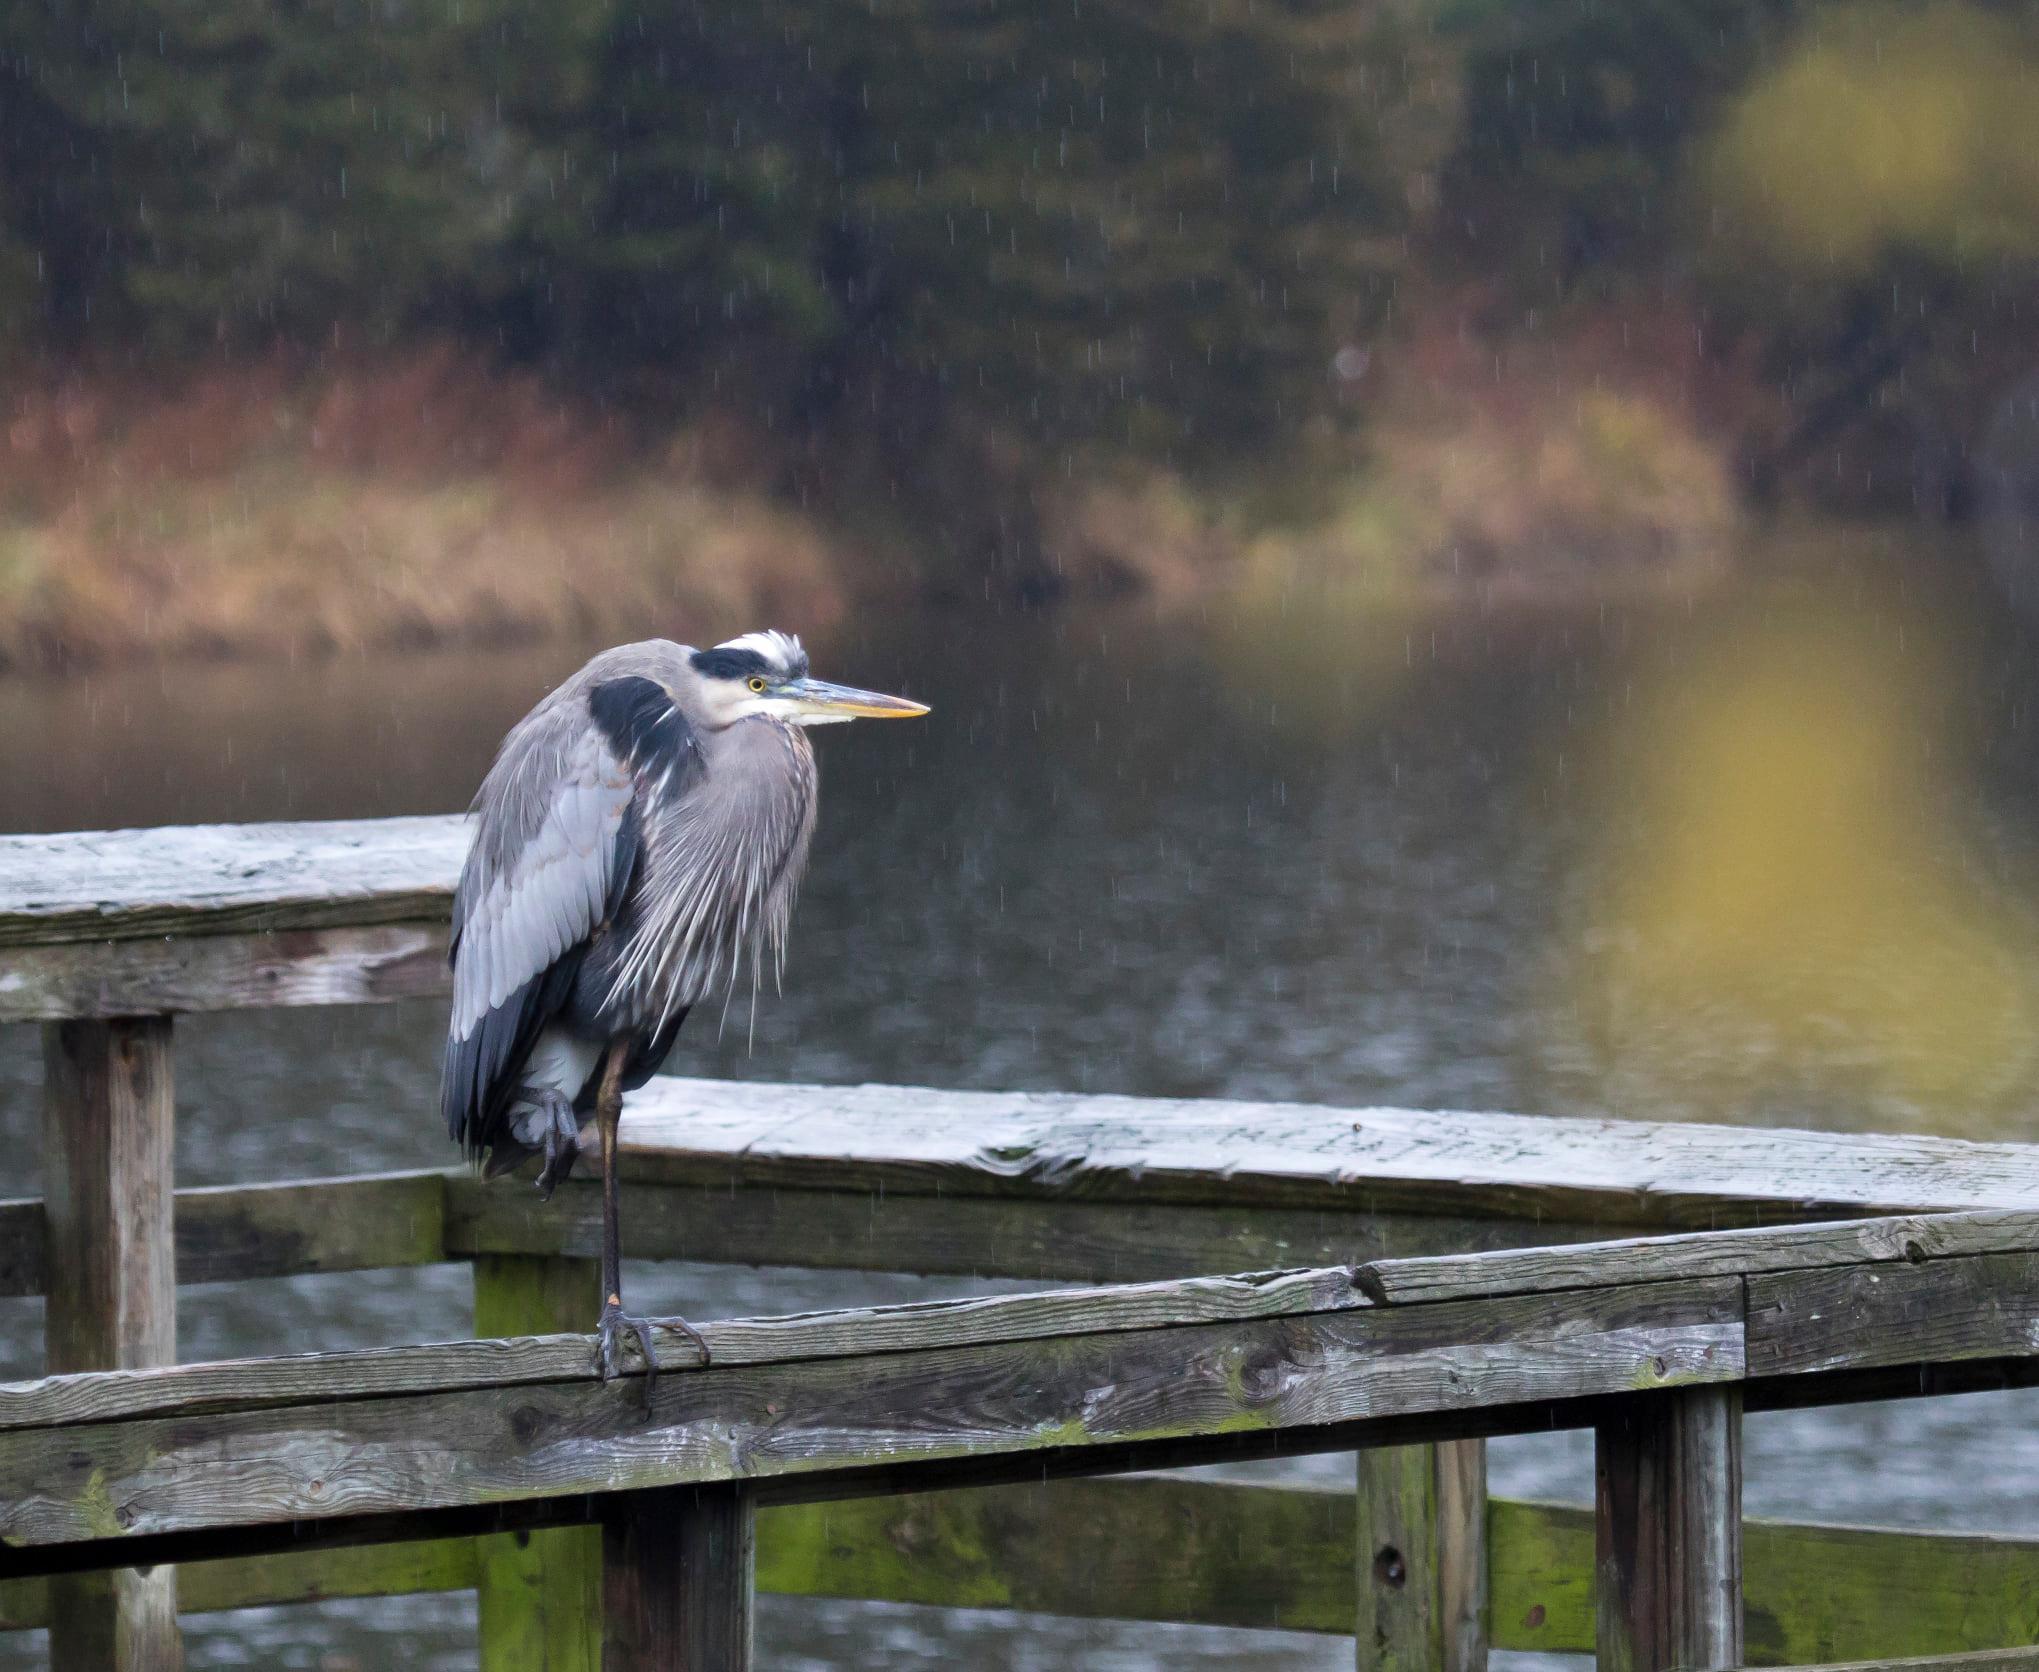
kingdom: Animalia
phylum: Chordata
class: Aves
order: Pelecaniformes
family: Ardeidae
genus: Ardea
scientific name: Ardea herodias
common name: Great blue heron
